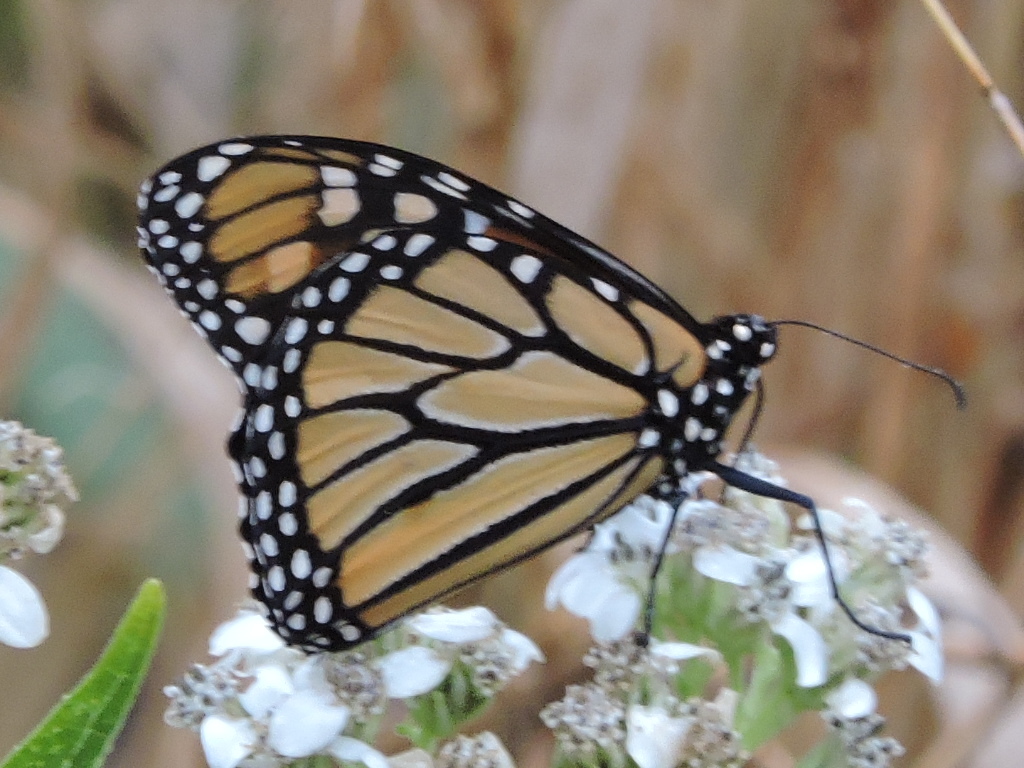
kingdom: Animalia
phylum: Arthropoda
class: Insecta
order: Lepidoptera
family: Nymphalidae
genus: Danaus
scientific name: Danaus plexippus
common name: Monarch
